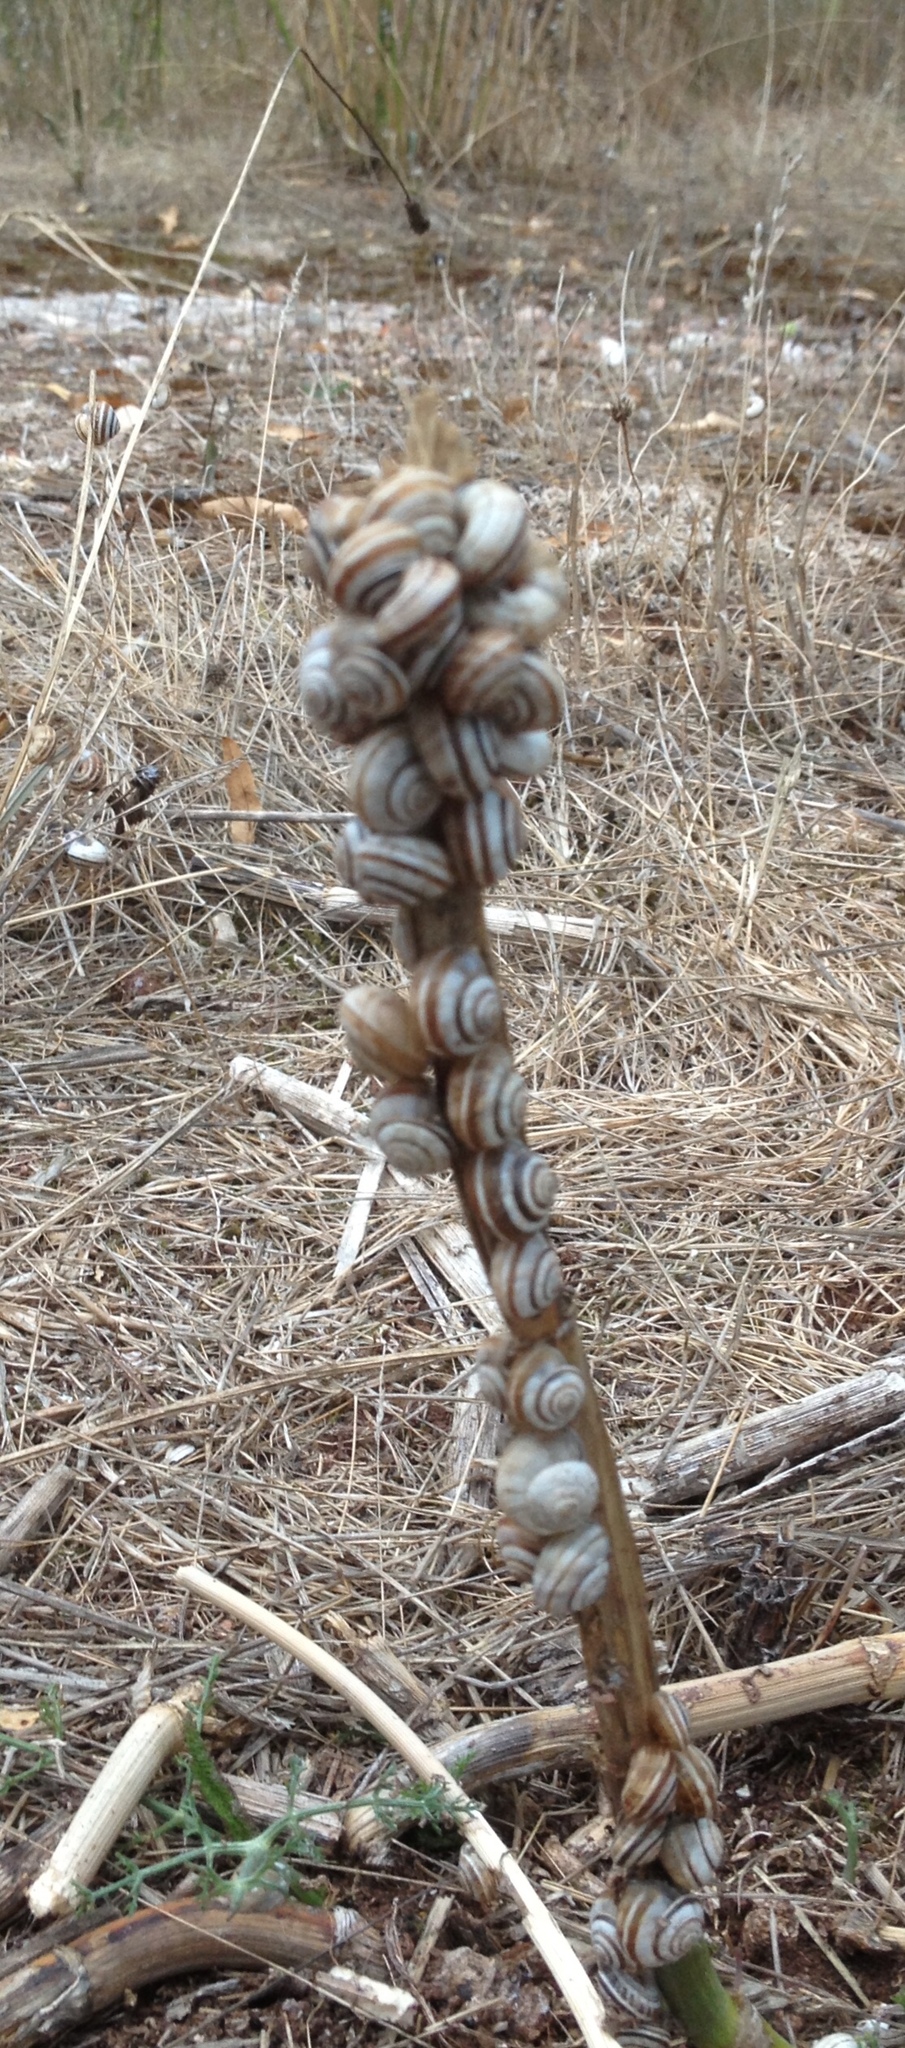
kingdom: Animalia
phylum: Mollusca
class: Gastropoda
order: Stylommatophora
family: Helicidae
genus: Theba
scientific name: Theba pisana
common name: White snail
